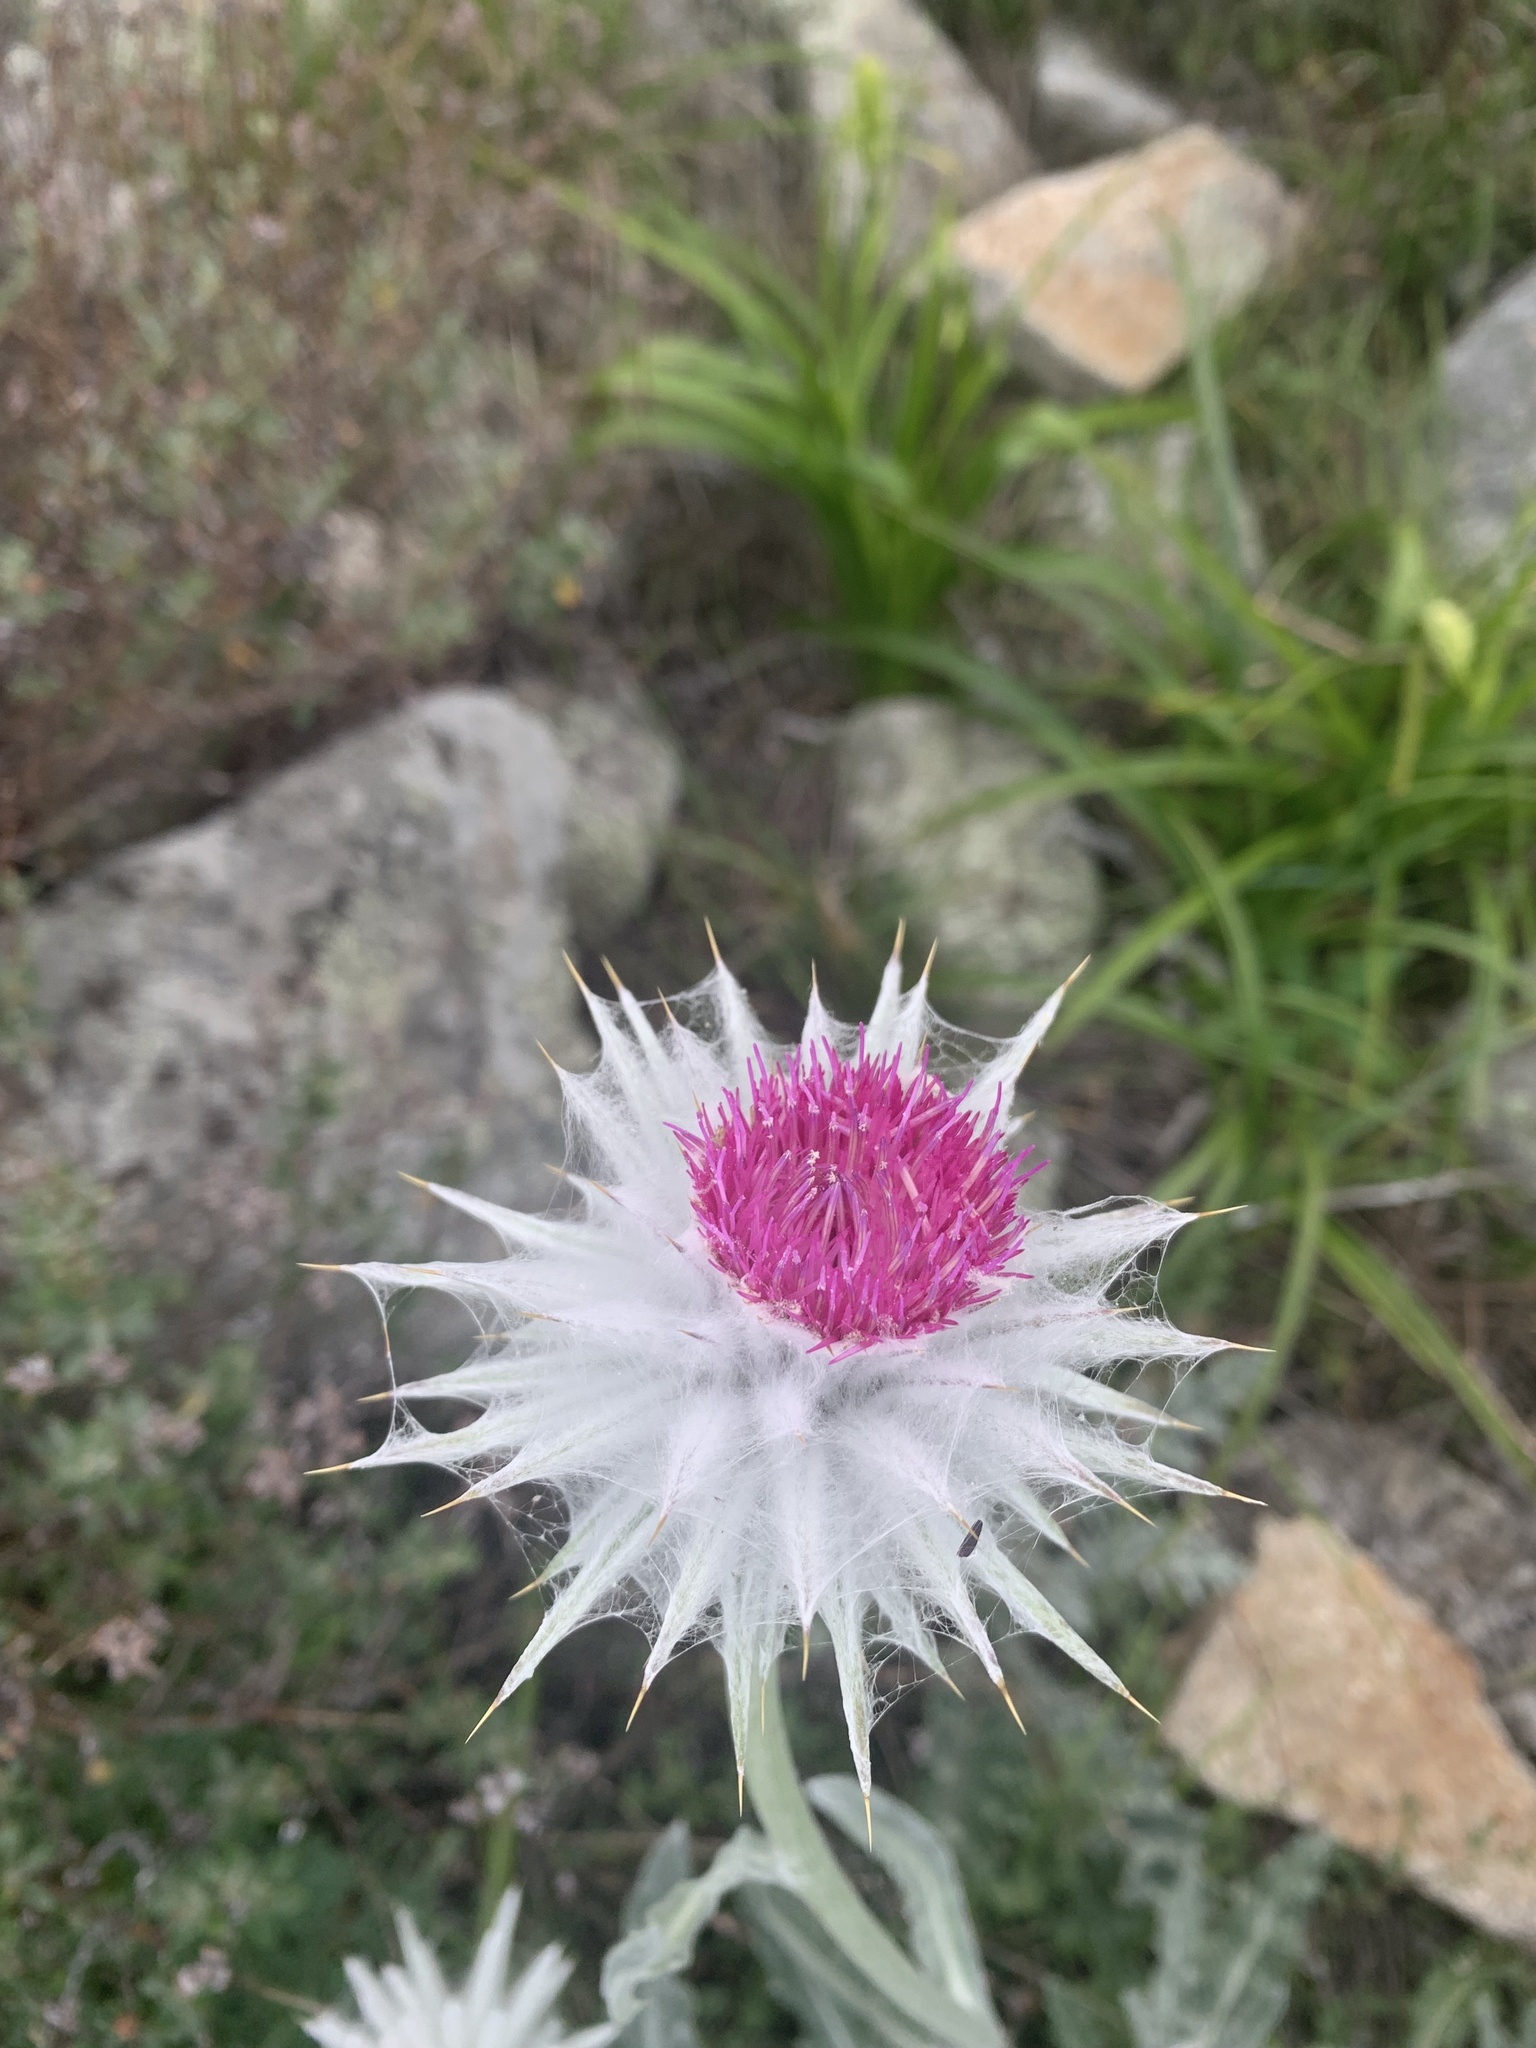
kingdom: Plantae
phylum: Tracheophyta
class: Magnoliopsida
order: Asterales
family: Asteraceae
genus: Cirsium
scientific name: Cirsium occidentale
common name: Western thistle
